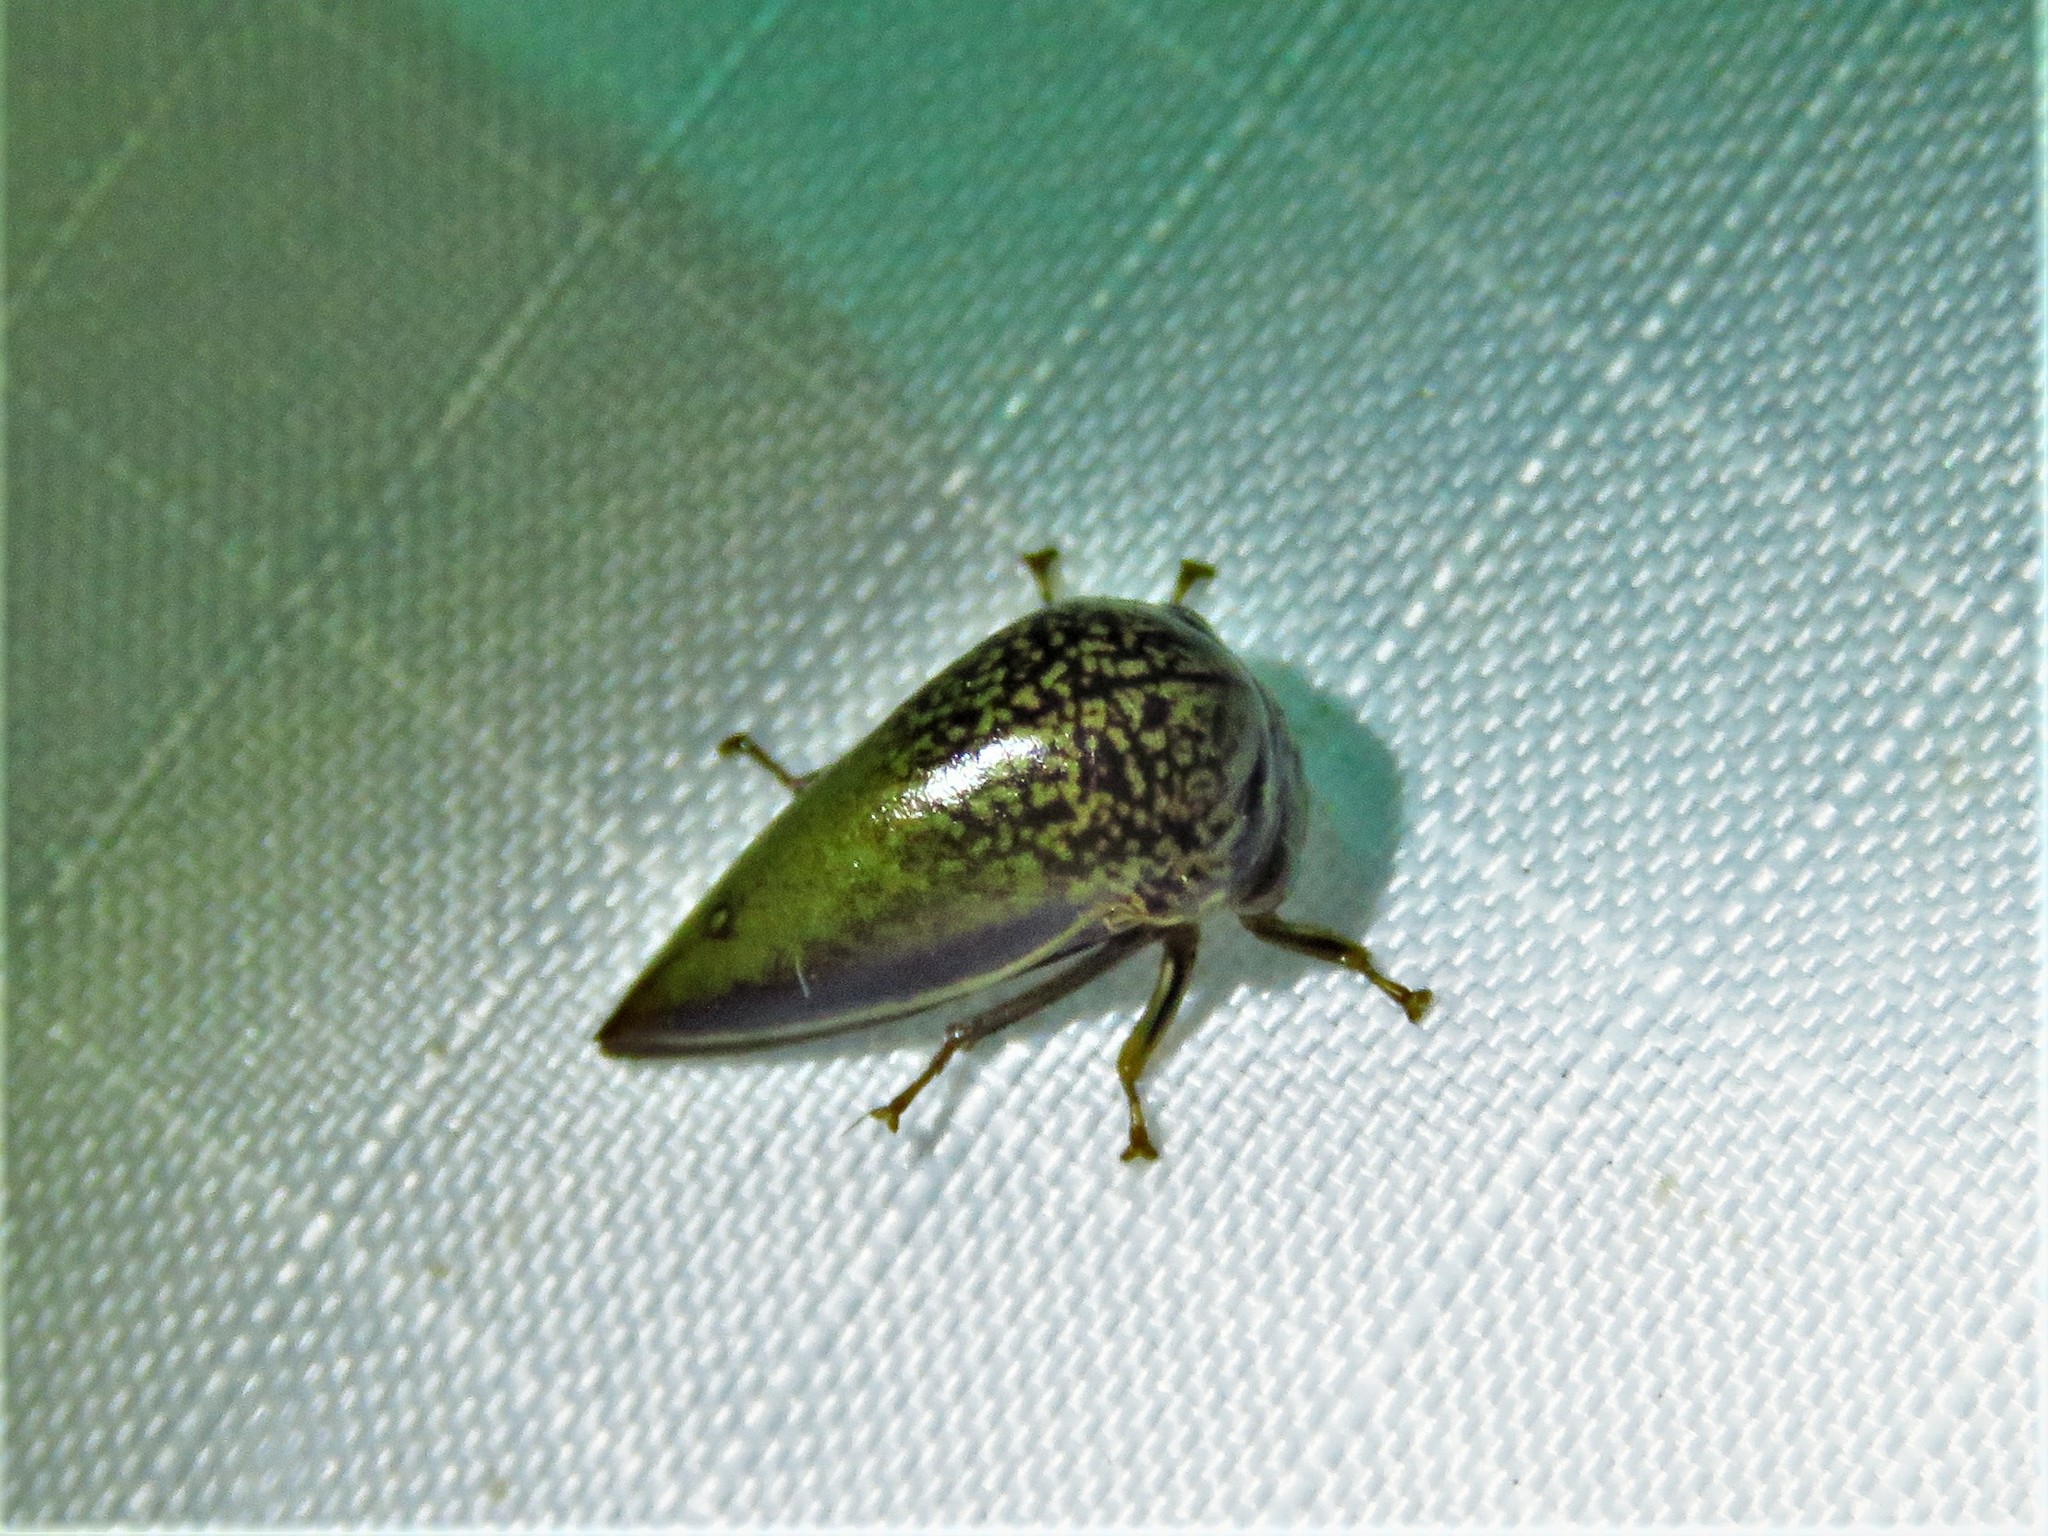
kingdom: Animalia
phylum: Arthropoda
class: Insecta
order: Hemiptera
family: Membracidae
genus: Stictopelta
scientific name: Stictopelta marmorata
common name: Treehopper
